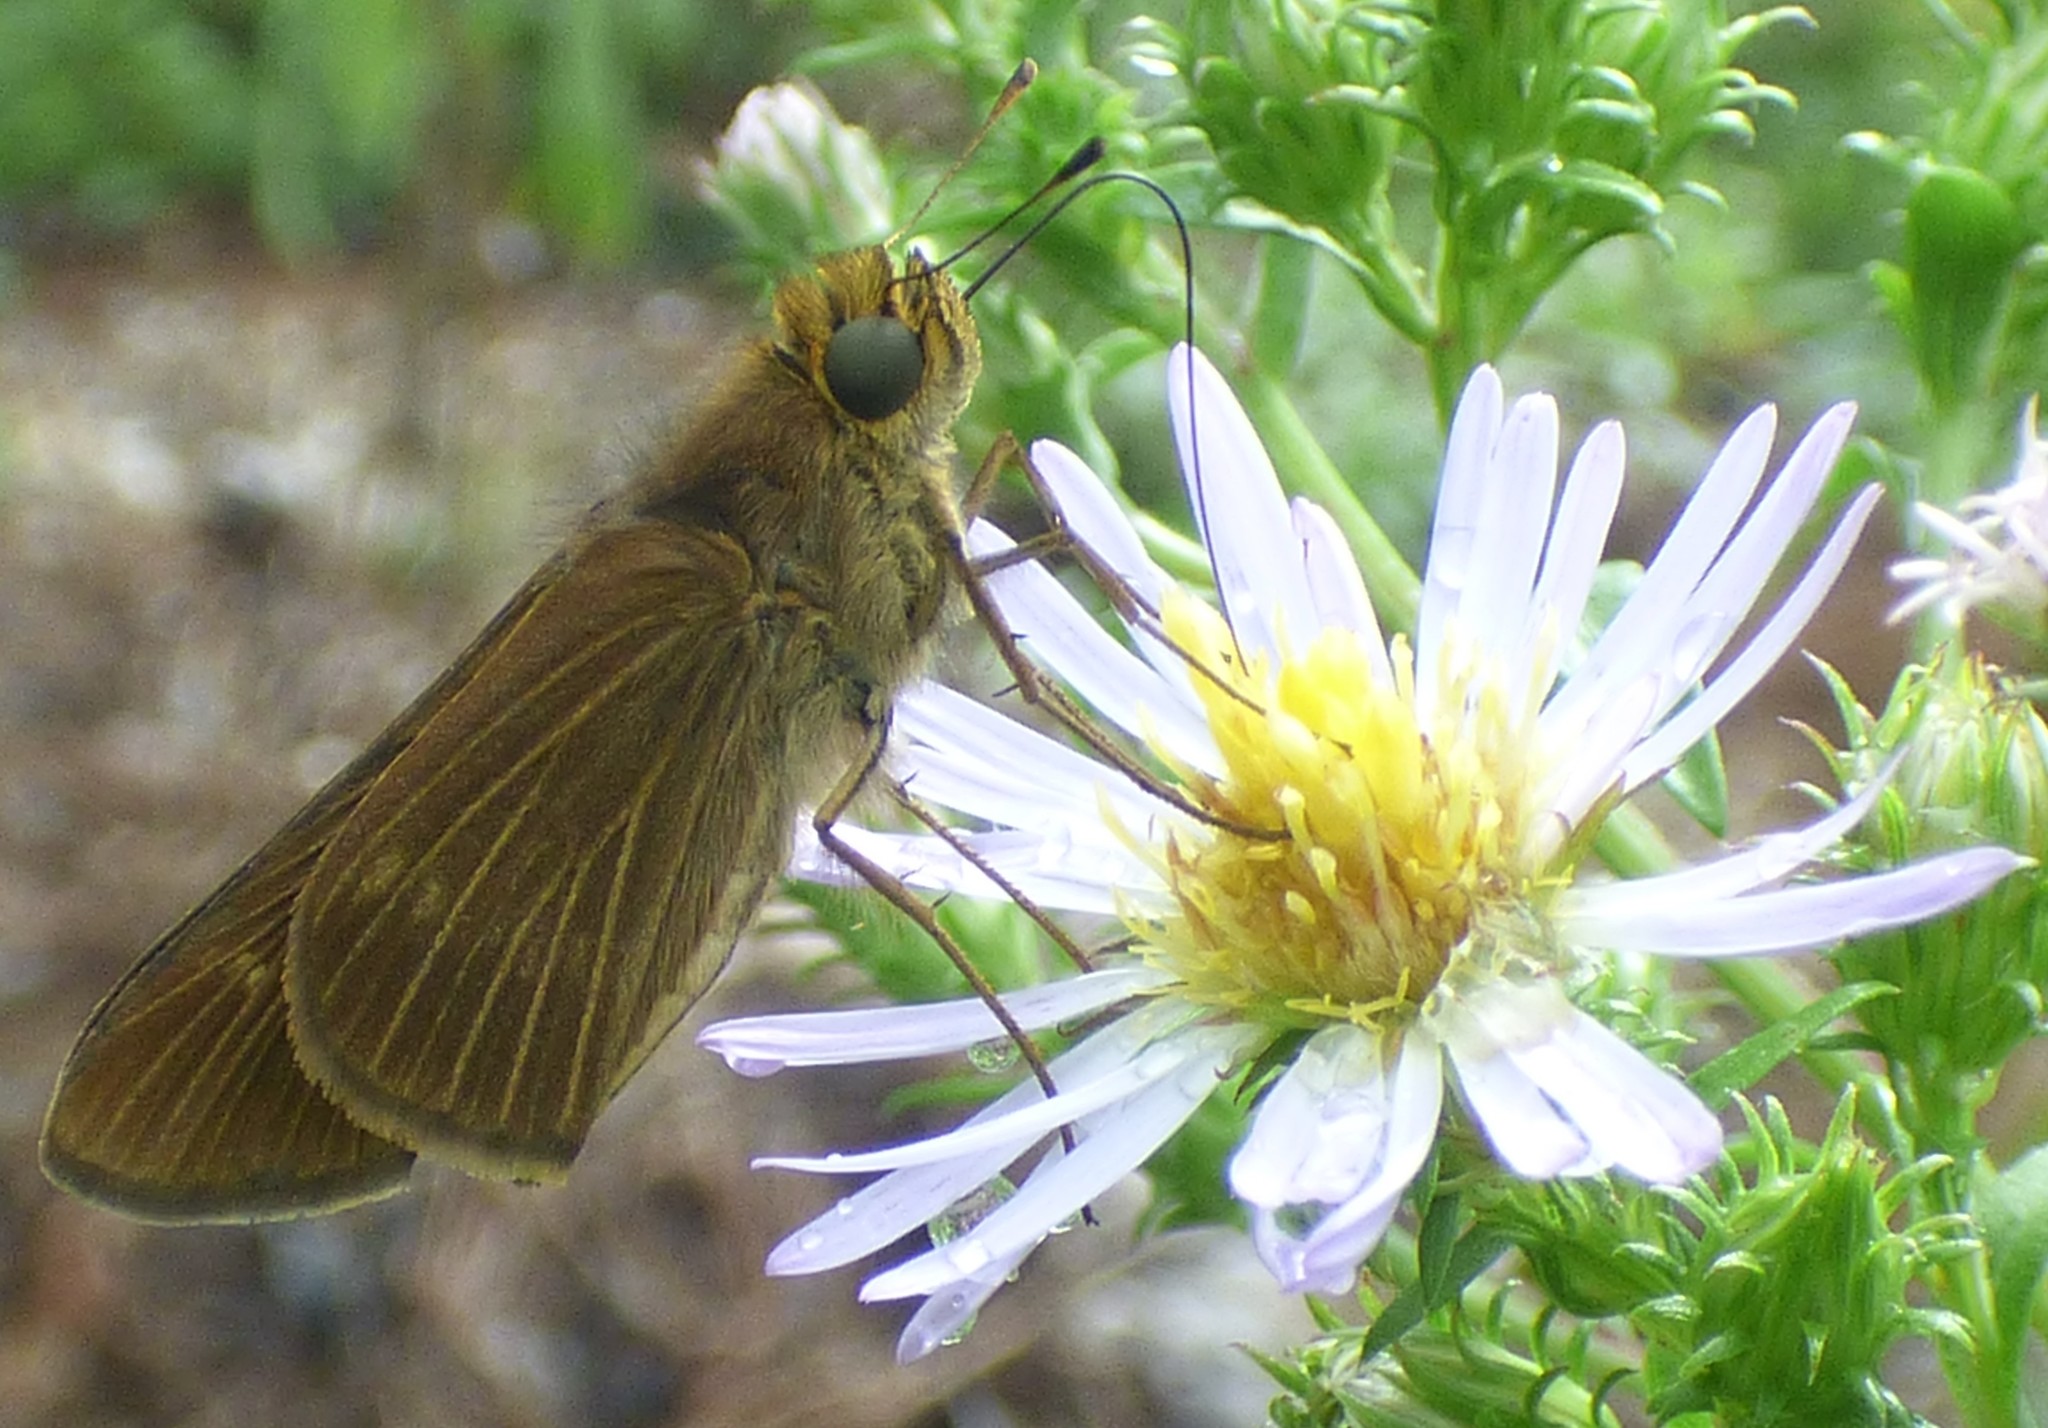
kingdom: Animalia
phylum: Arthropoda
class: Insecta
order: Lepidoptera
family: Hesperiidae
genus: Panoquina
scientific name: Panoquina ocola
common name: Ocola skipper
